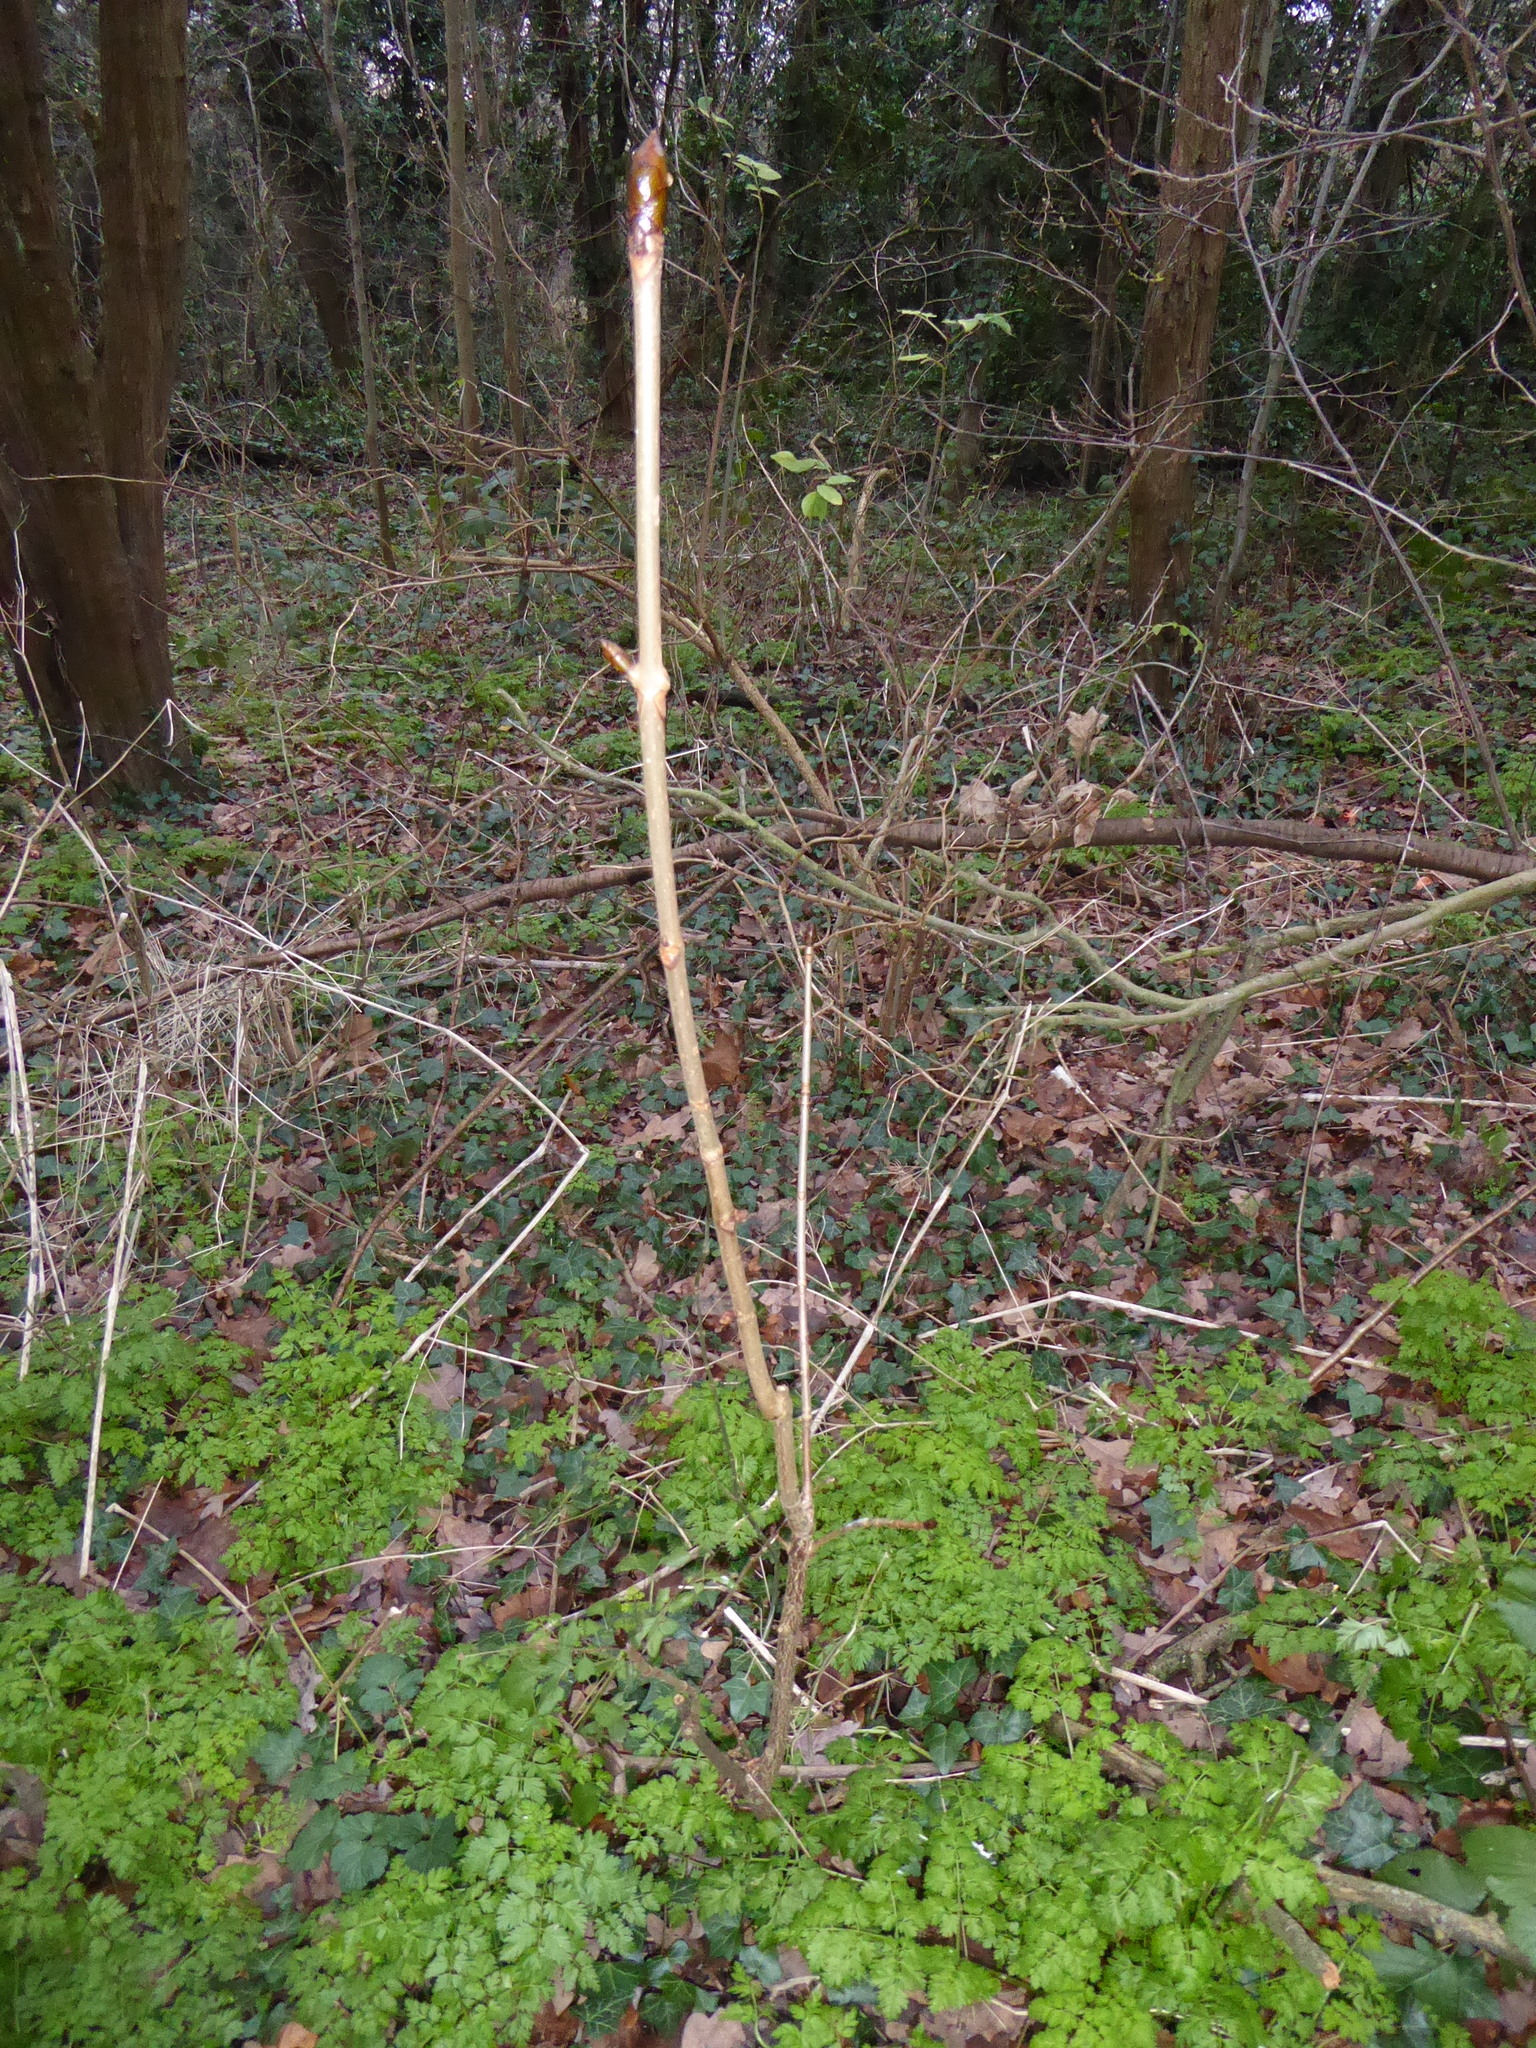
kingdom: Plantae
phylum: Tracheophyta
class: Magnoliopsida
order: Sapindales
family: Sapindaceae
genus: Aesculus
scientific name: Aesculus hippocastanum
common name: Horse-chestnut
